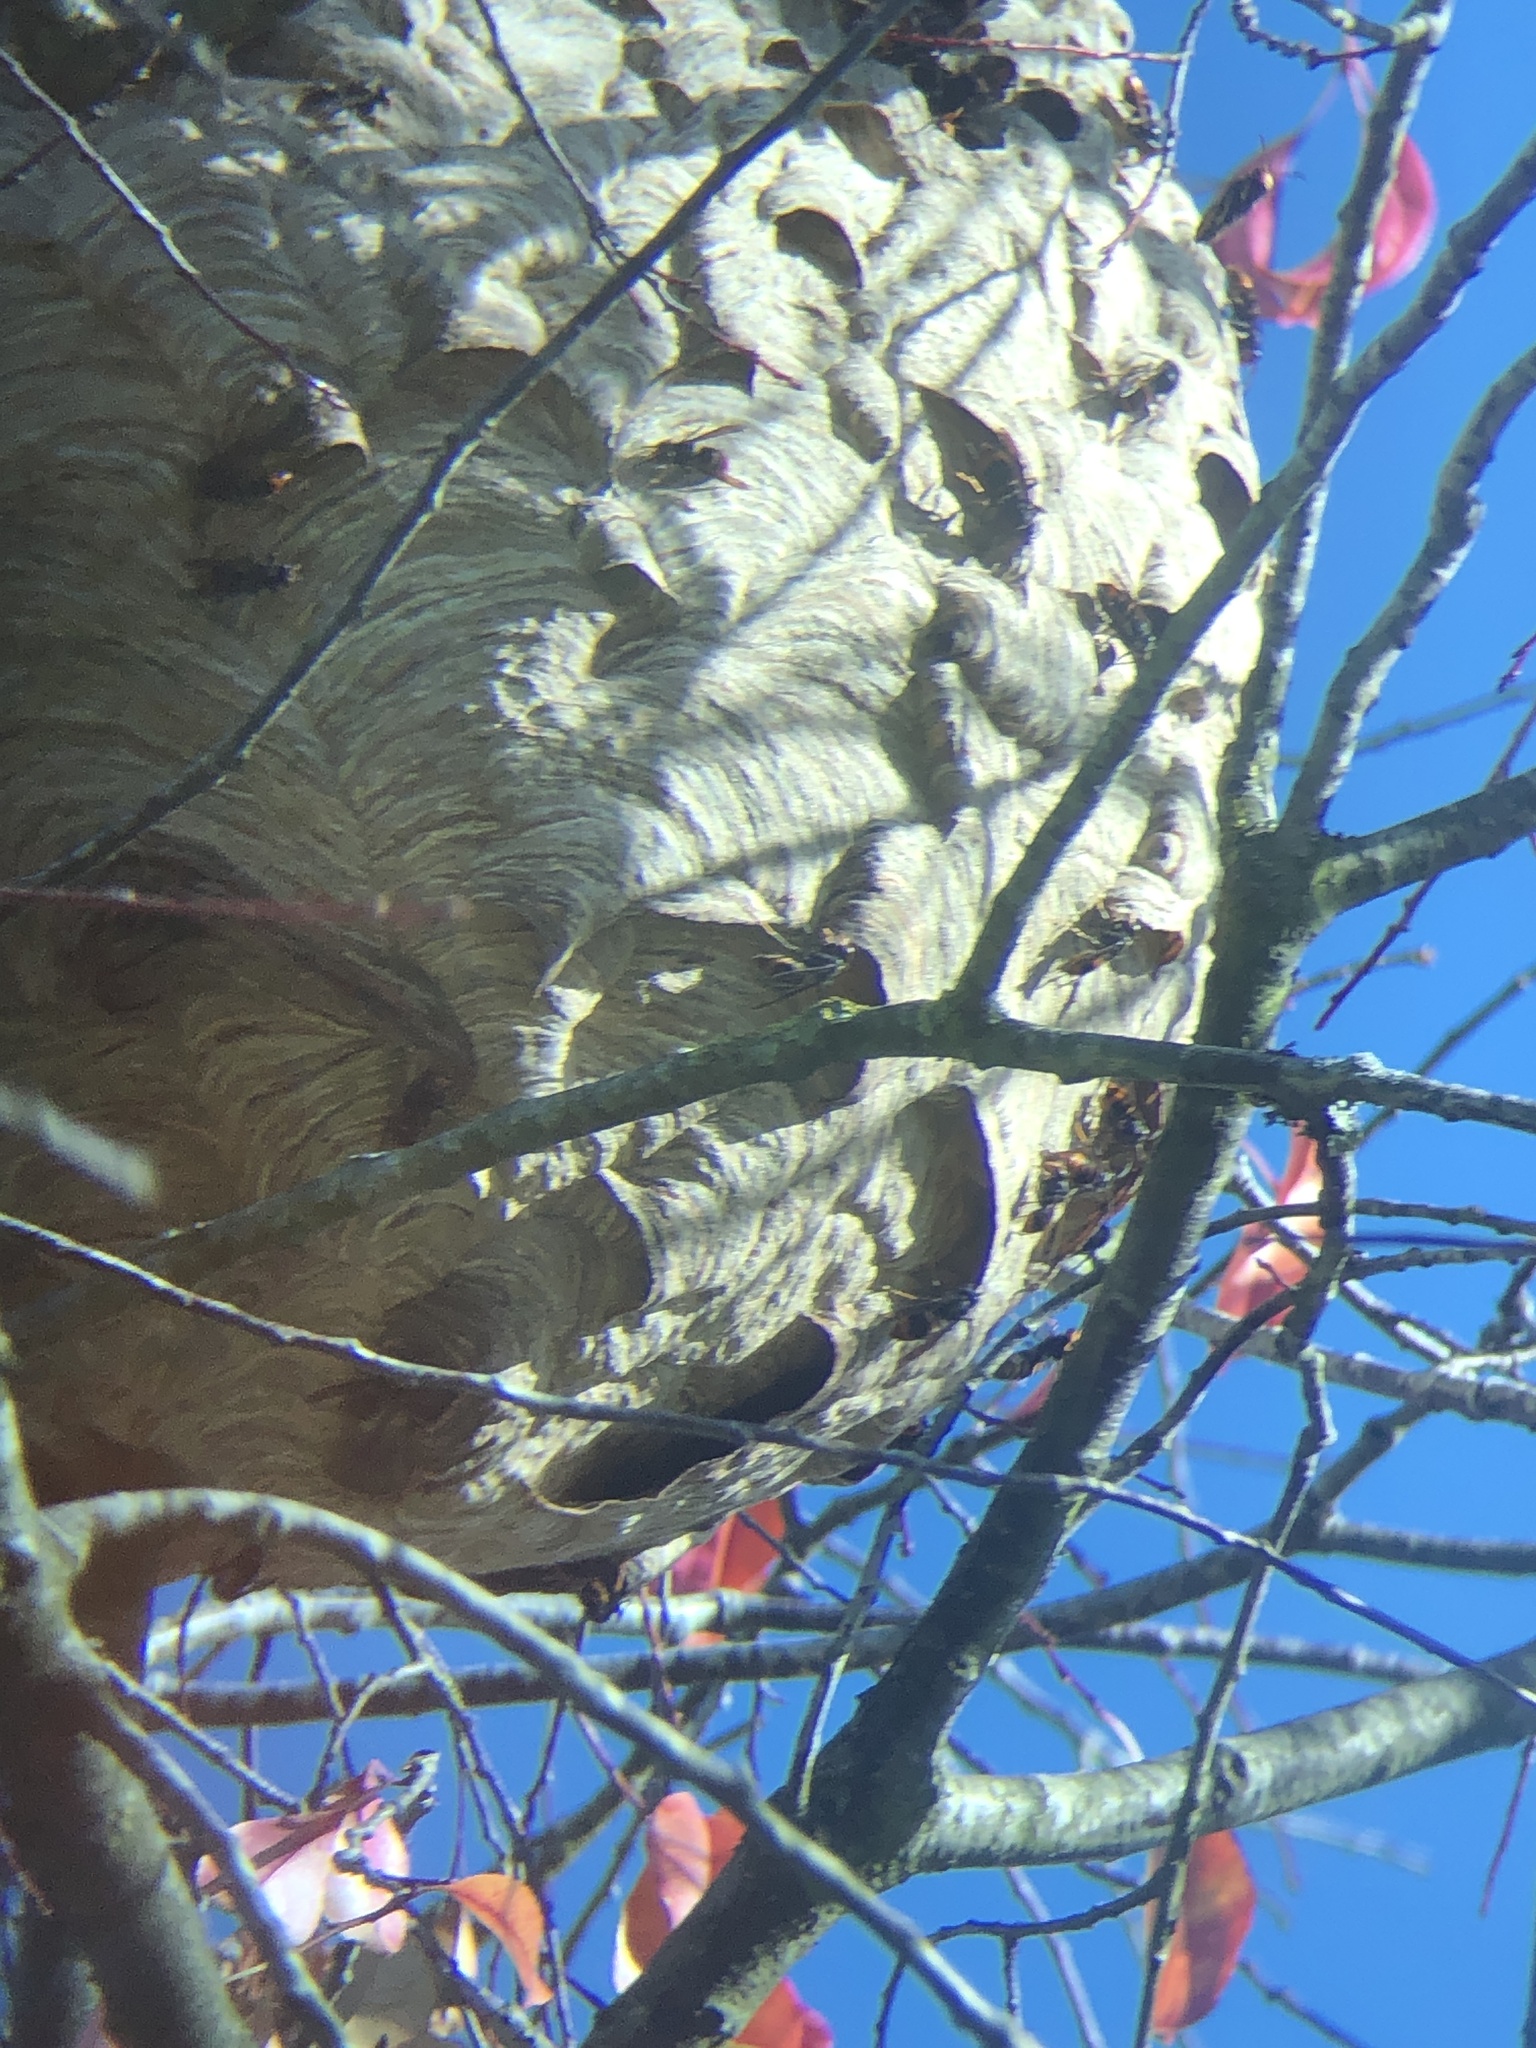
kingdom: Animalia
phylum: Arthropoda
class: Insecta
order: Hymenoptera
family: Vespidae
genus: Vespa
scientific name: Vespa velutina
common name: Asian hornet
